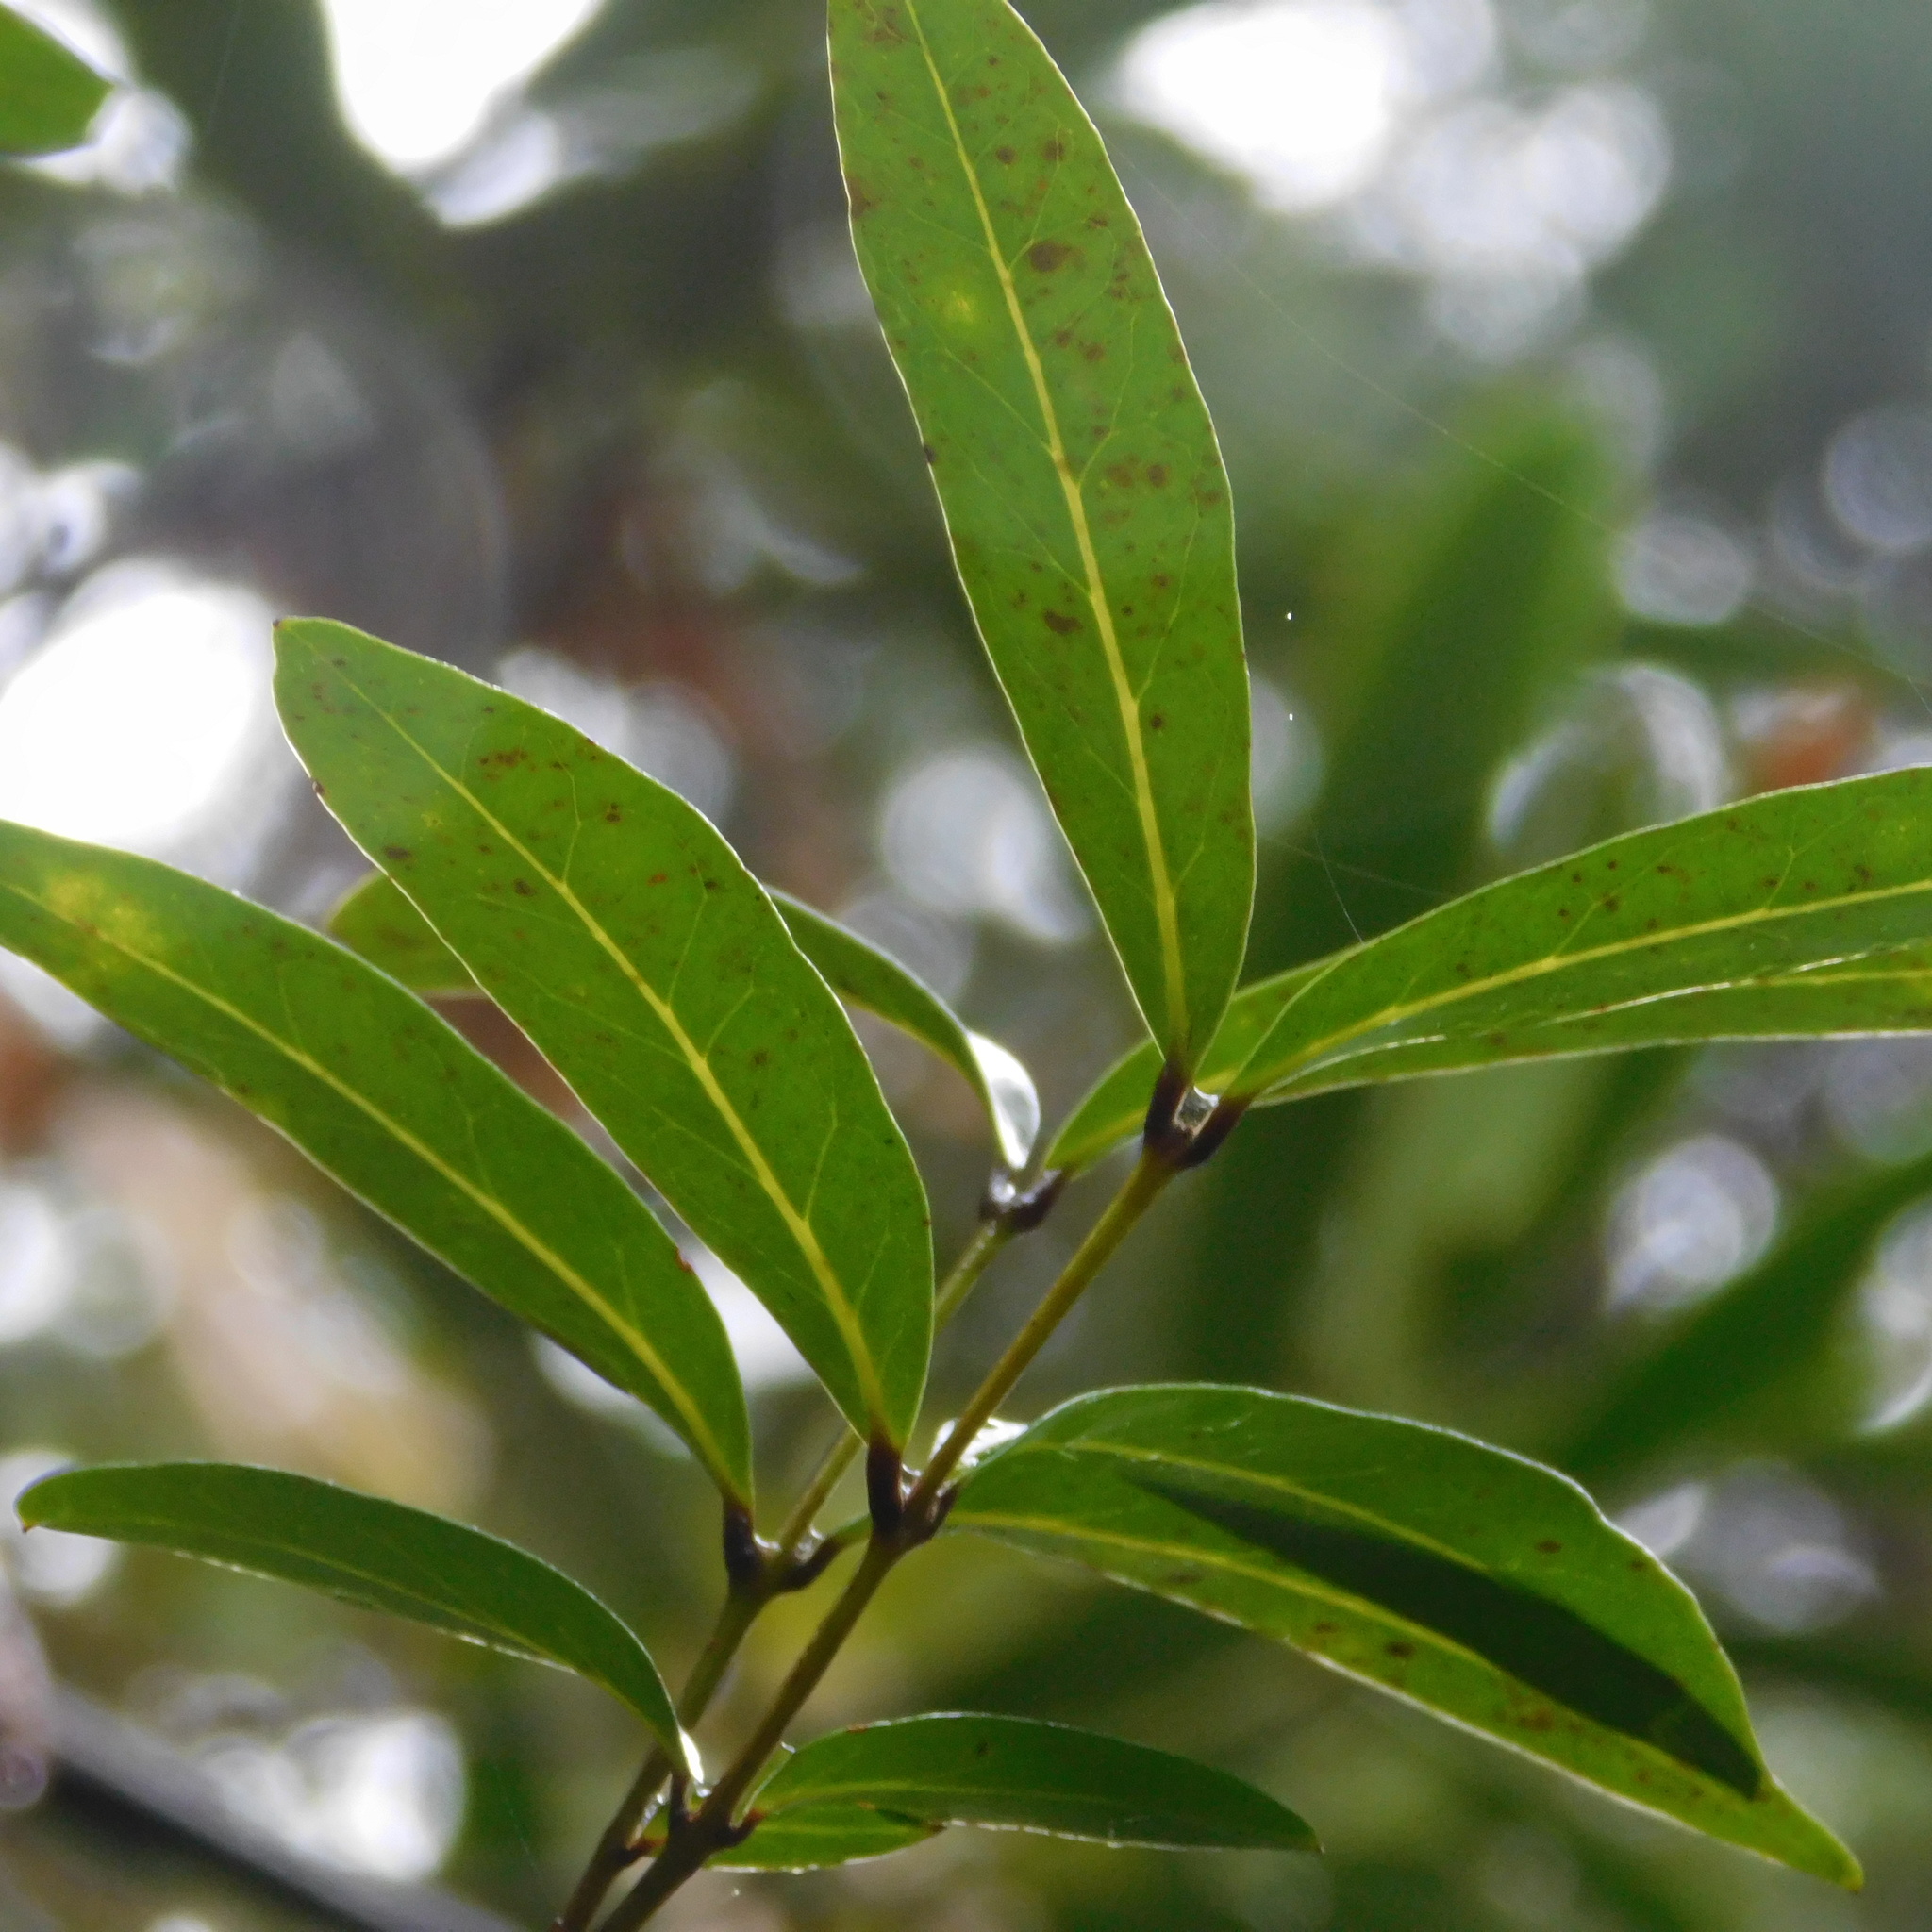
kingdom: Plantae
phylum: Tracheophyta
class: Magnoliopsida
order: Santalales
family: Nanodeaceae
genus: Mida
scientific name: Mida salicifolia
